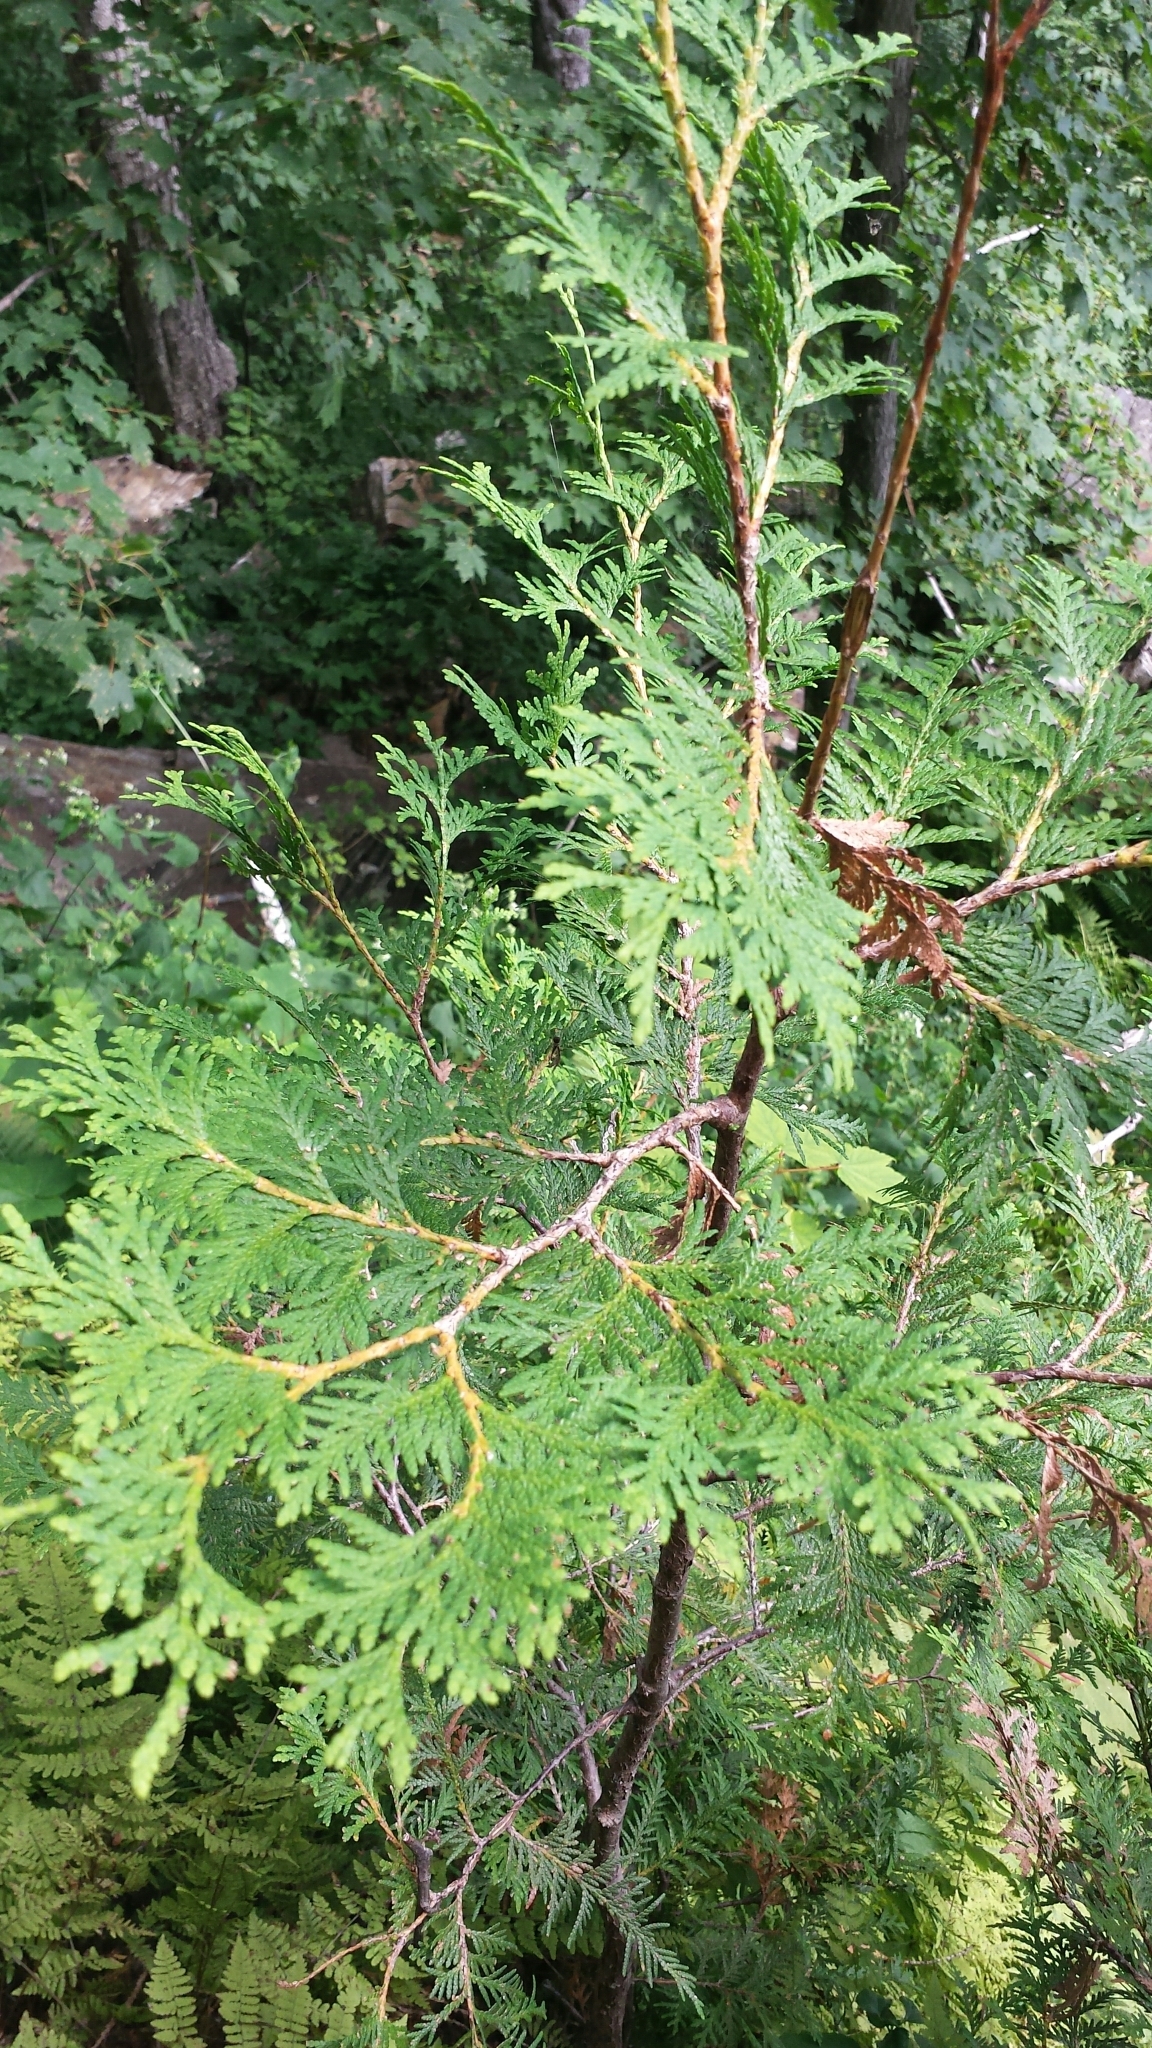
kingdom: Plantae
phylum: Tracheophyta
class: Pinopsida
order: Pinales
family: Cupressaceae
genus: Thuja
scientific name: Thuja occidentalis
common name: Northern white-cedar
